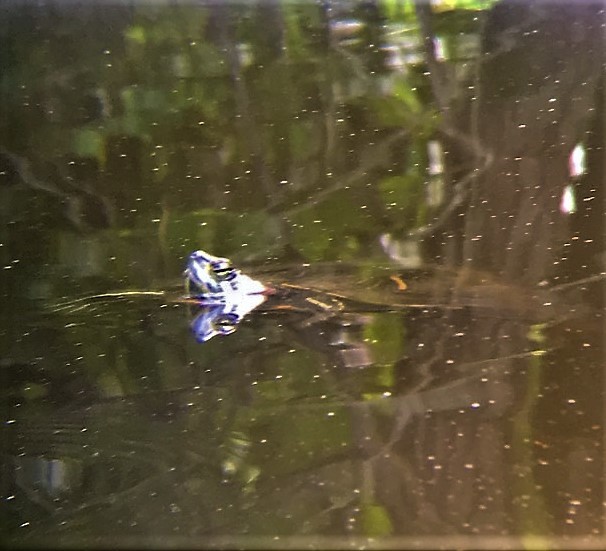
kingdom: Animalia
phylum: Chordata
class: Testudines
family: Emydidae
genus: Trachemys
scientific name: Trachemys scripta
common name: Slider
